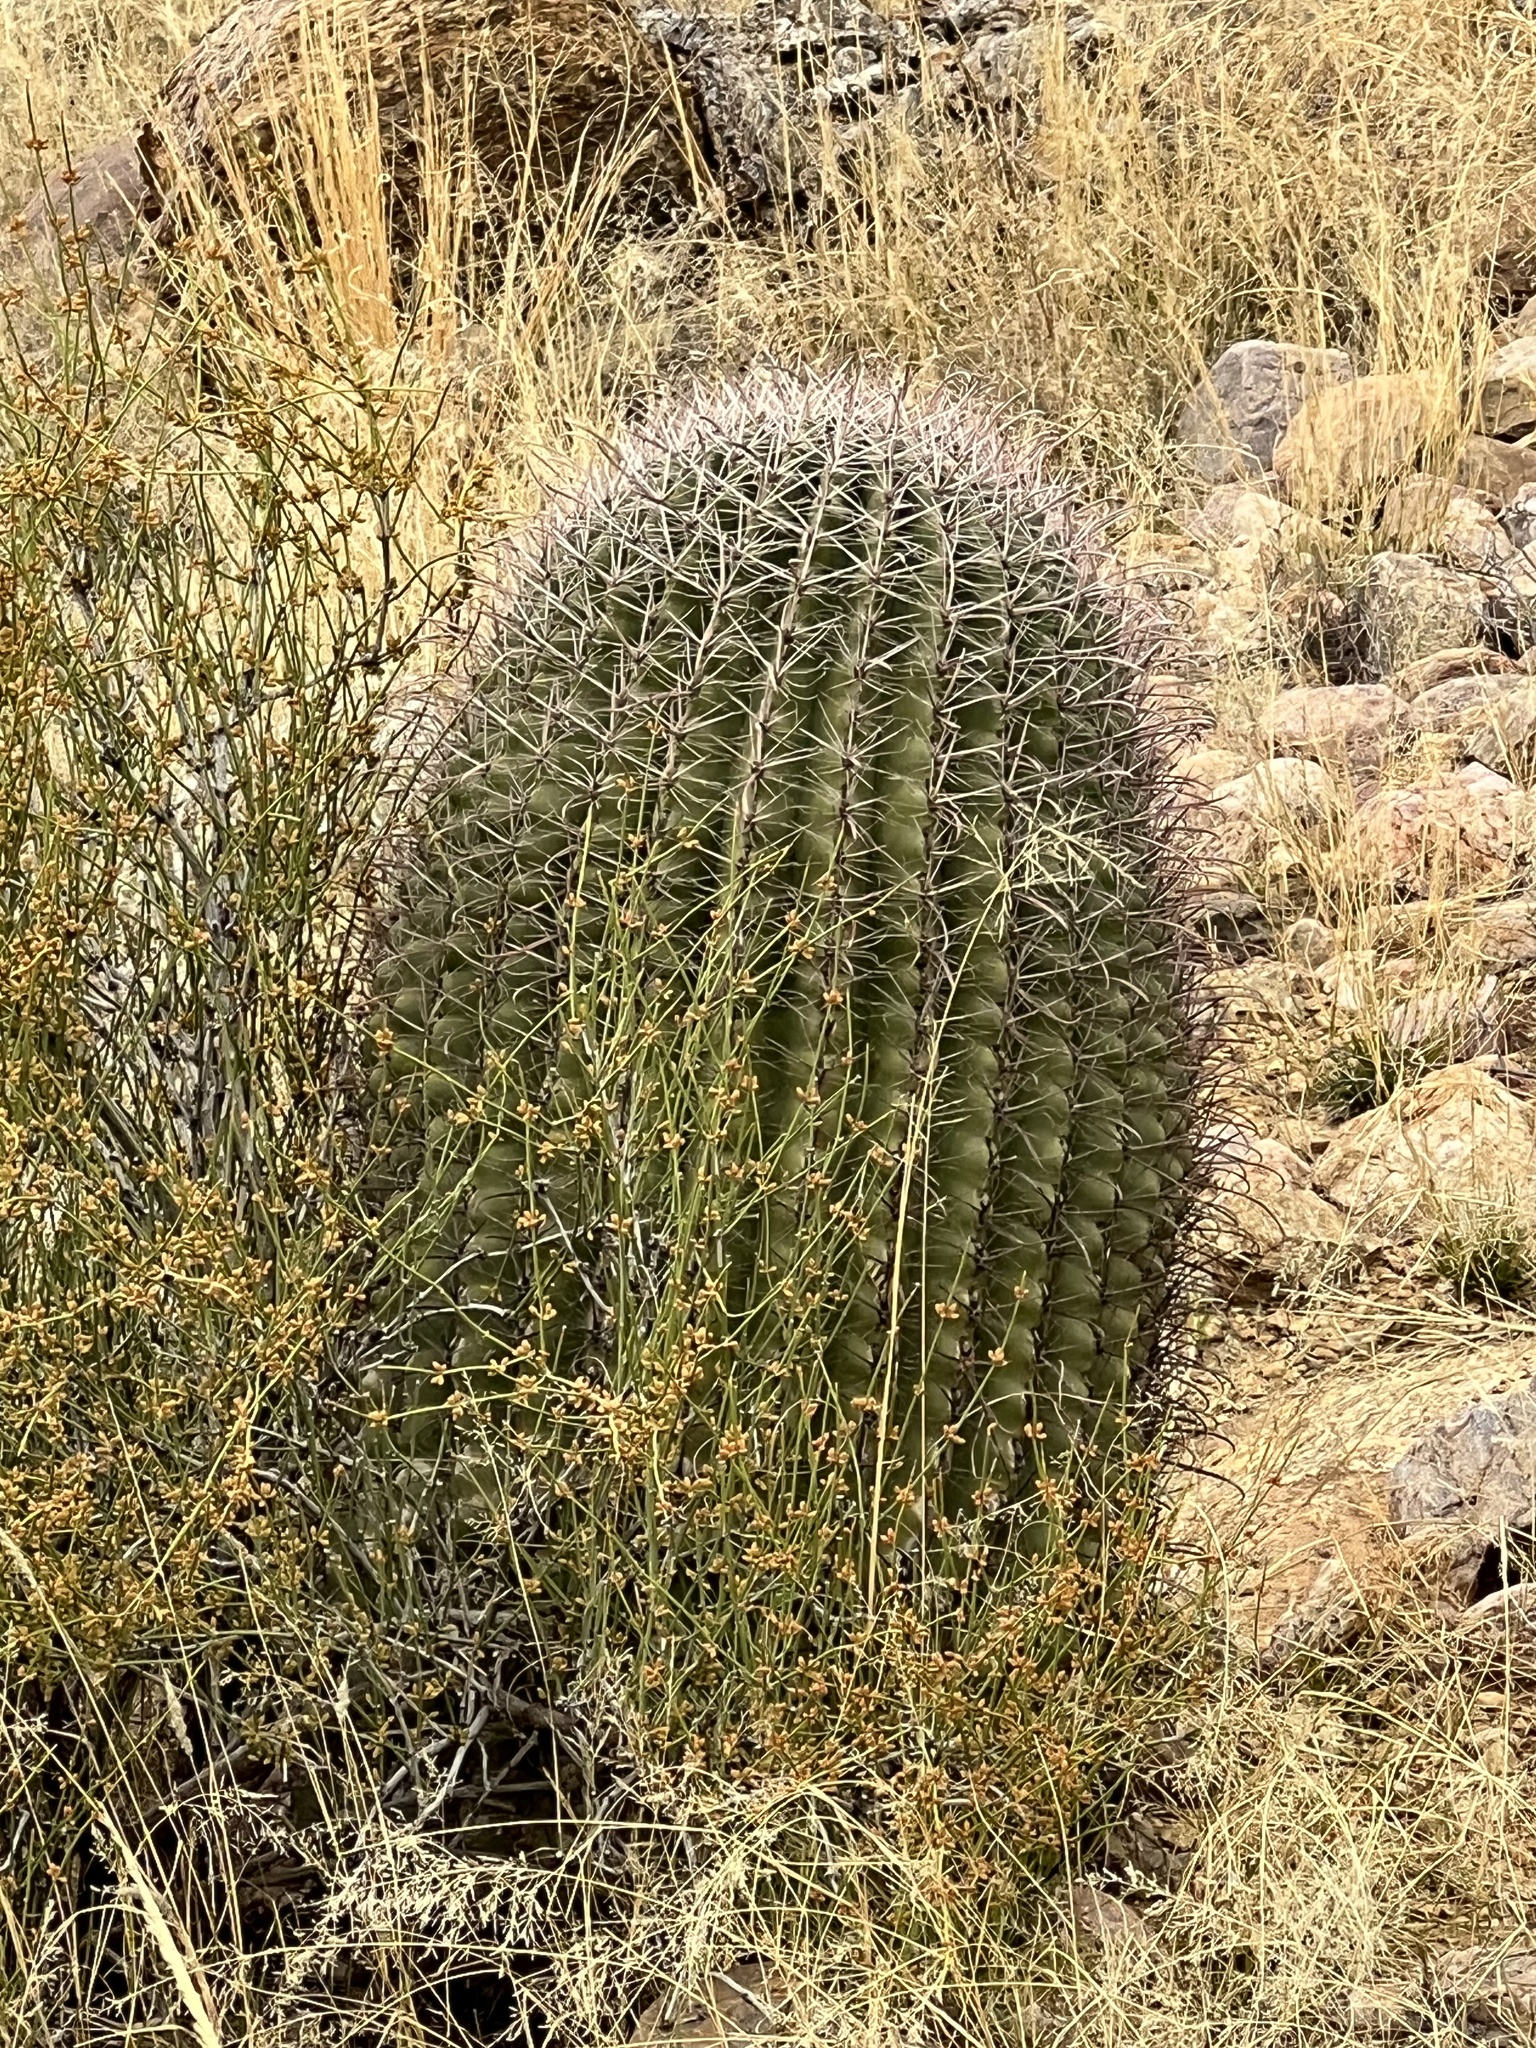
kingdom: Plantae
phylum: Tracheophyta
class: Magnoliopsida
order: Caryophyllales
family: Cactaceae
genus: Ferocactus
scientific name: Ferocactus wislizeni
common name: Candy barrel cactus
